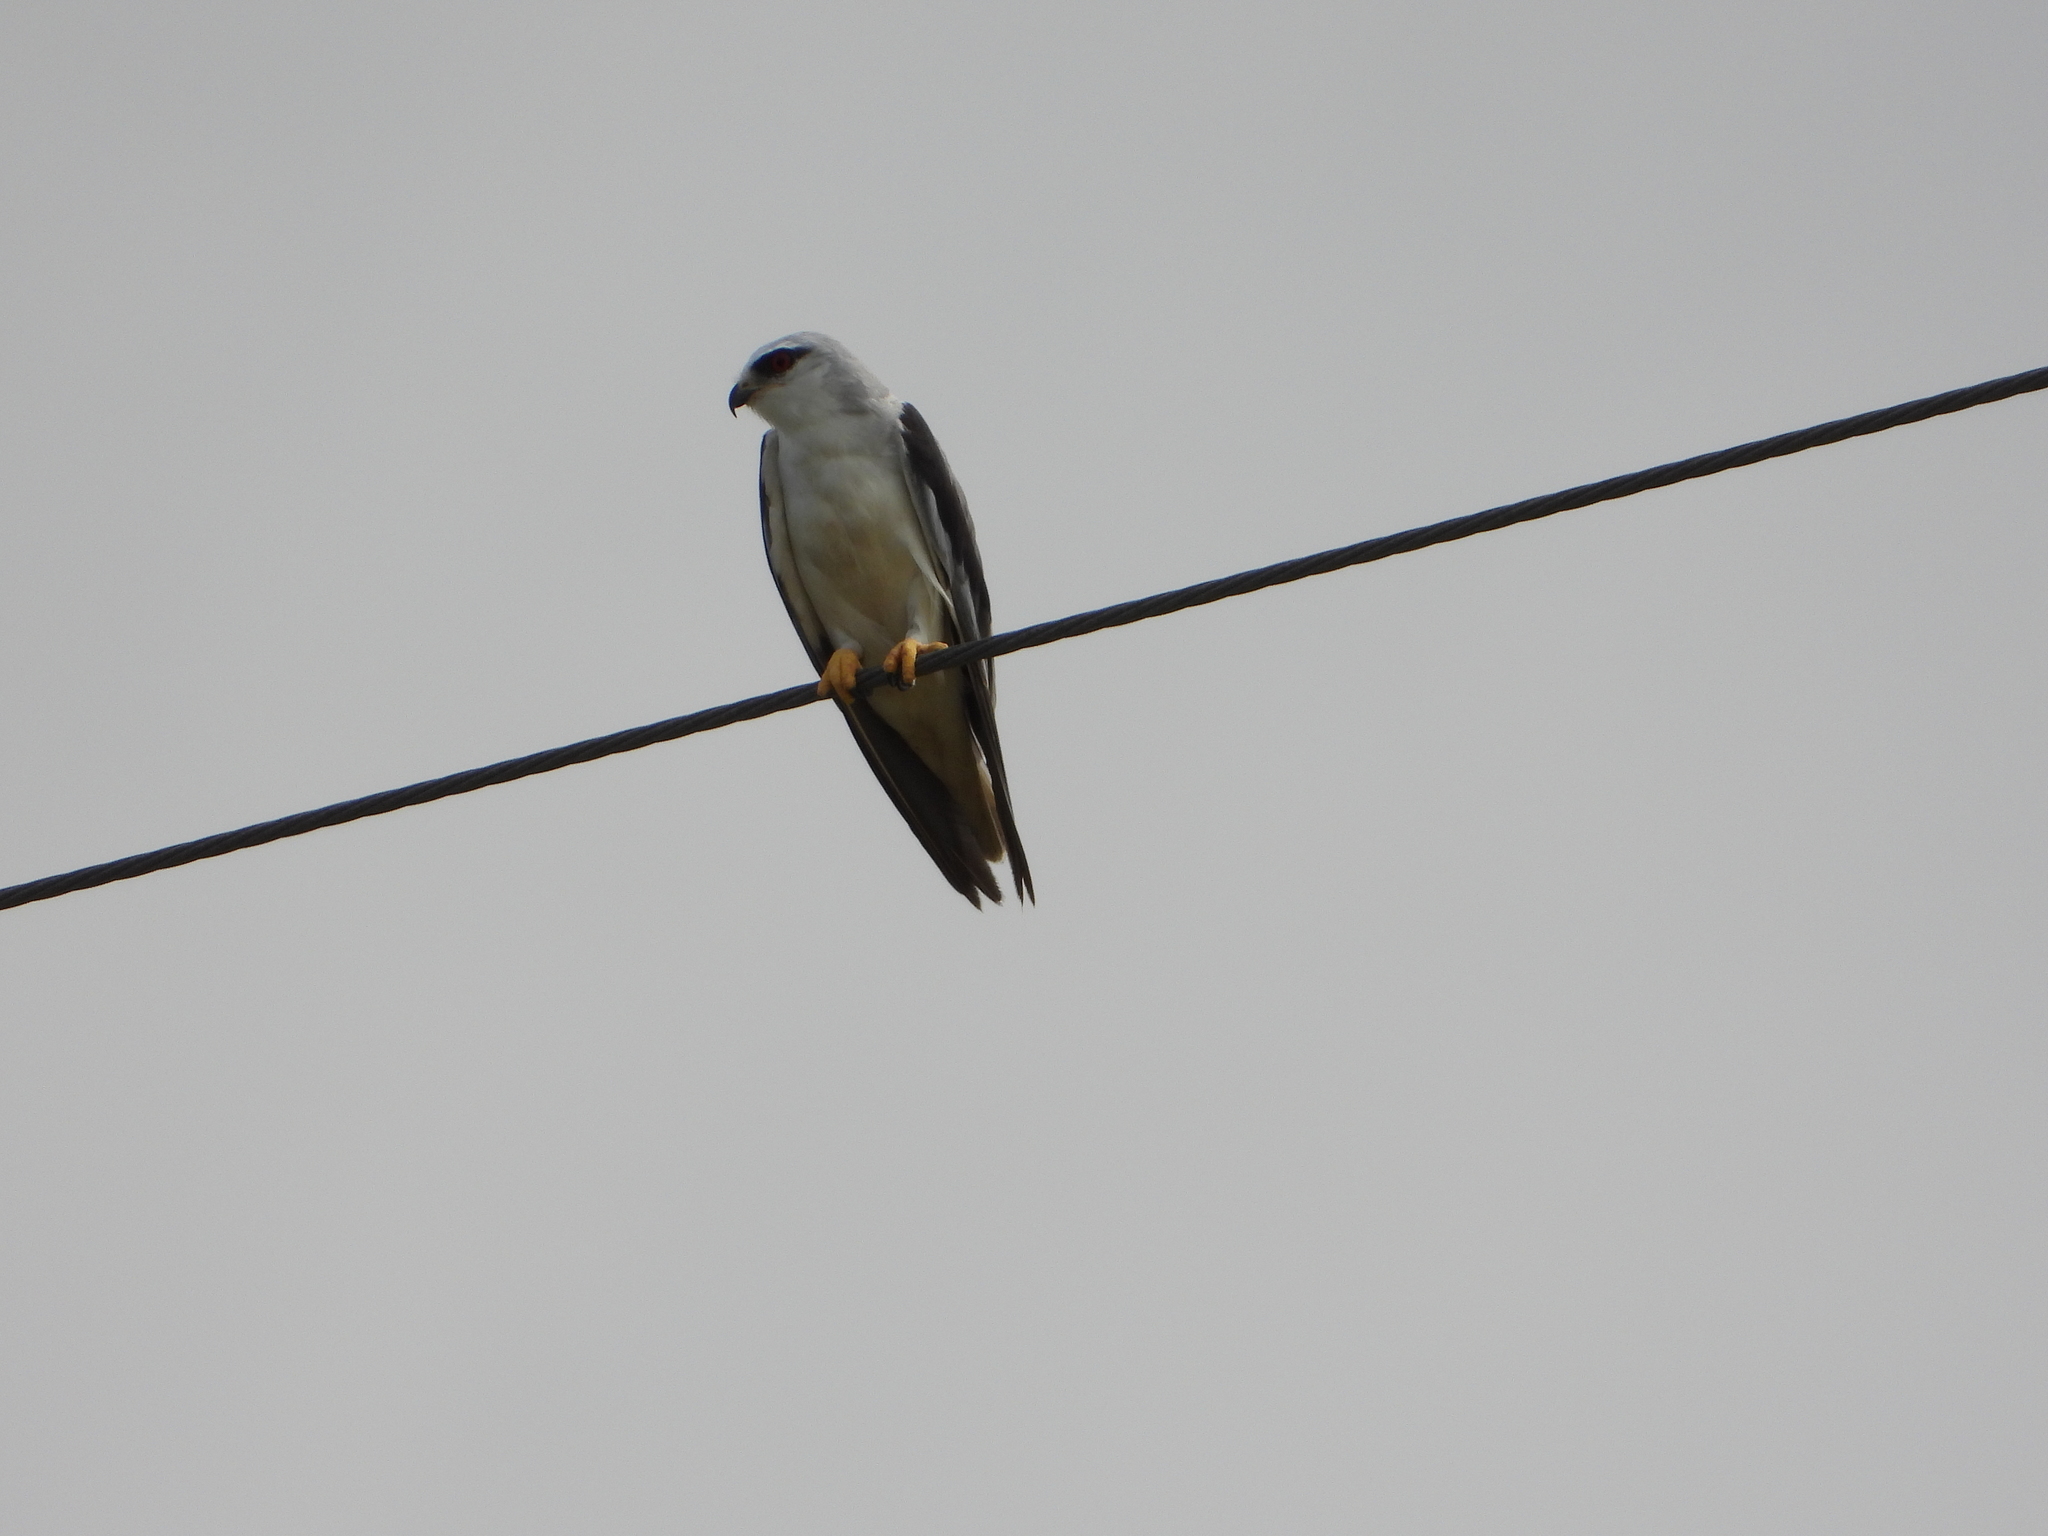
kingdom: Animalia
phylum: Chordata
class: Aves
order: Accipitriformes
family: Accipitridae
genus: Elanus
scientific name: Elanus caeruleus
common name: Black-winged kite
